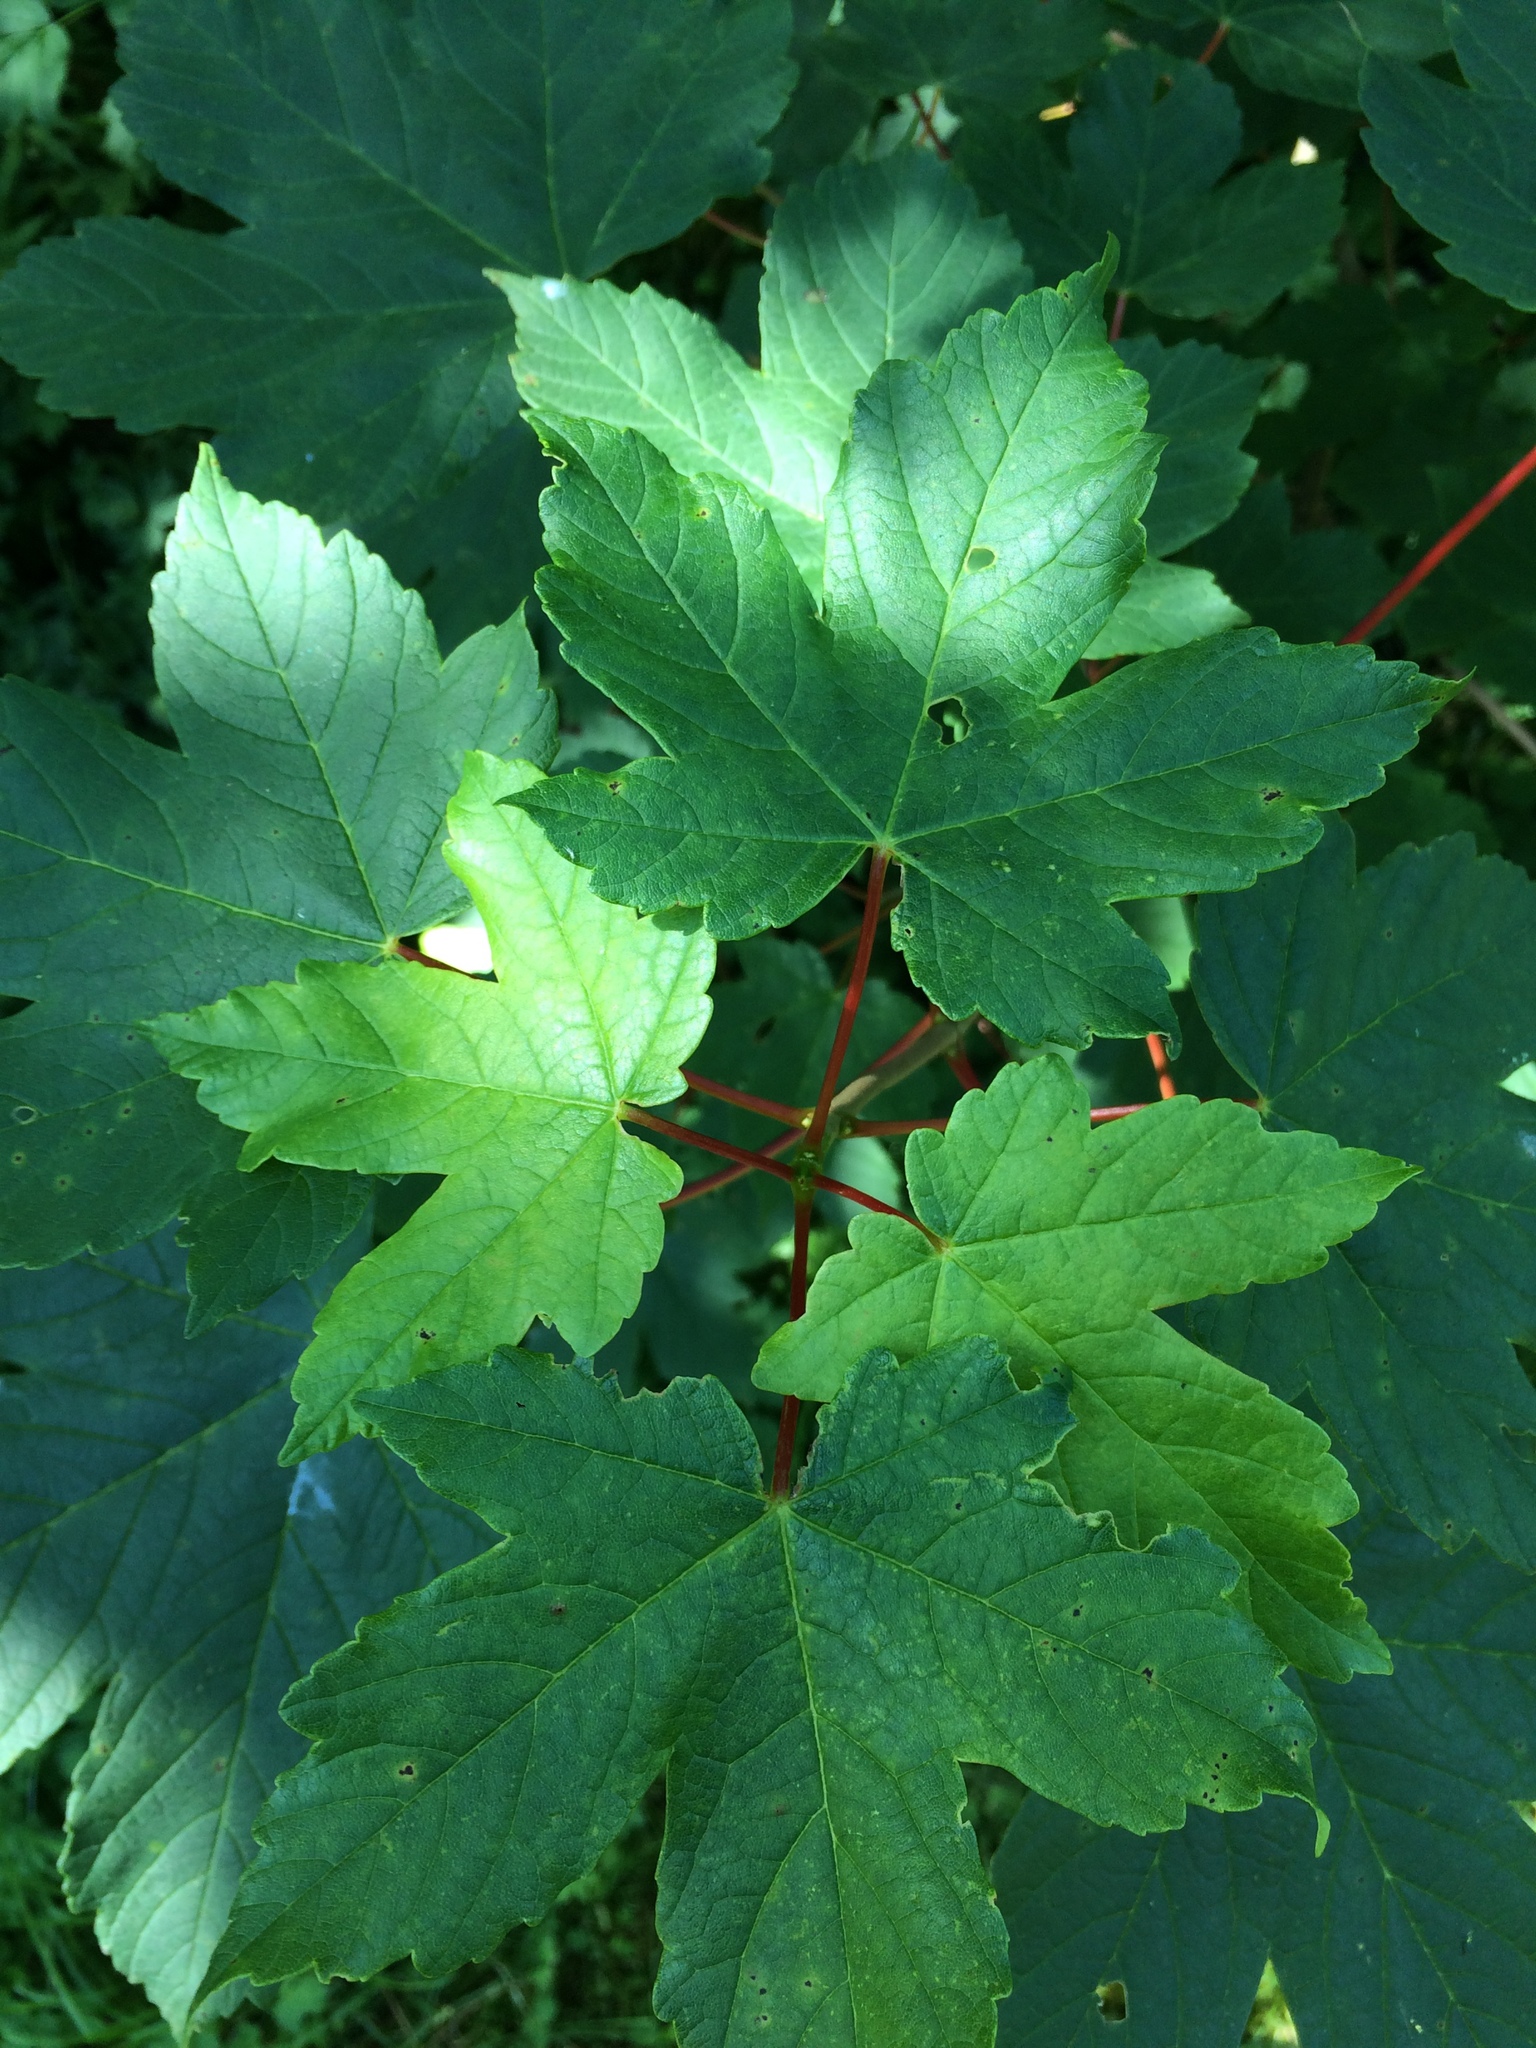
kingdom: Plantae
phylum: Tracheophyta
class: Magnoliopsida
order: Sapindales
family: Sapindaceae
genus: Acer
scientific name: Acer pseudoplatanus
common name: Sycamore
